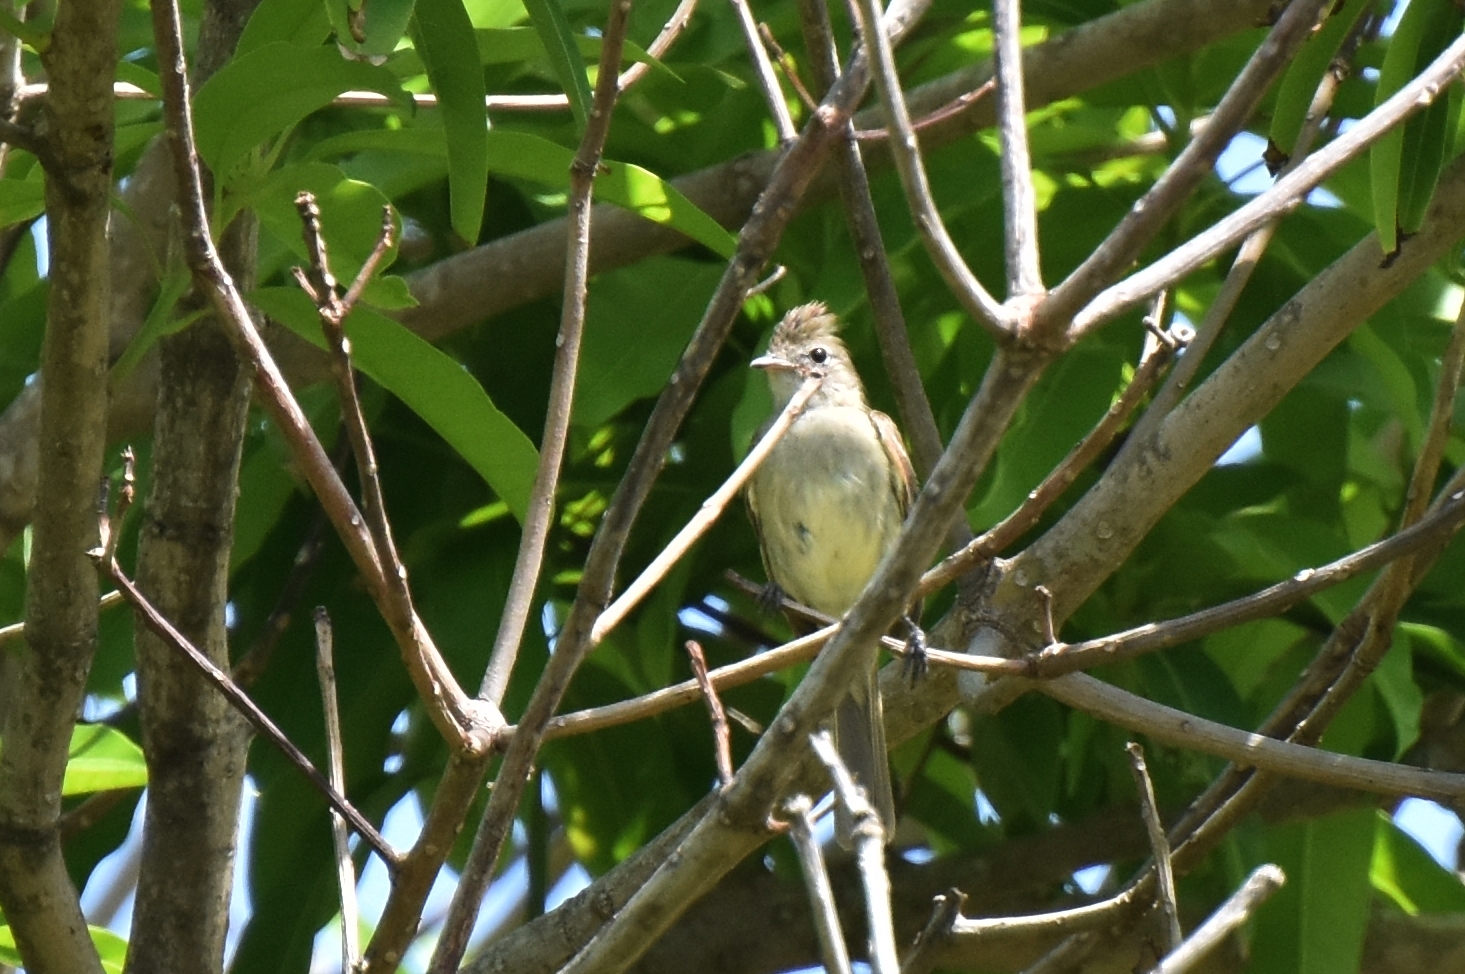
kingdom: Animalia
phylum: Chordata
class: Aves
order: Passeriformes
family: Tyrannidae
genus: Elaenia
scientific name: Elaenia flavogaster
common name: Yellow-bellied elaenia
